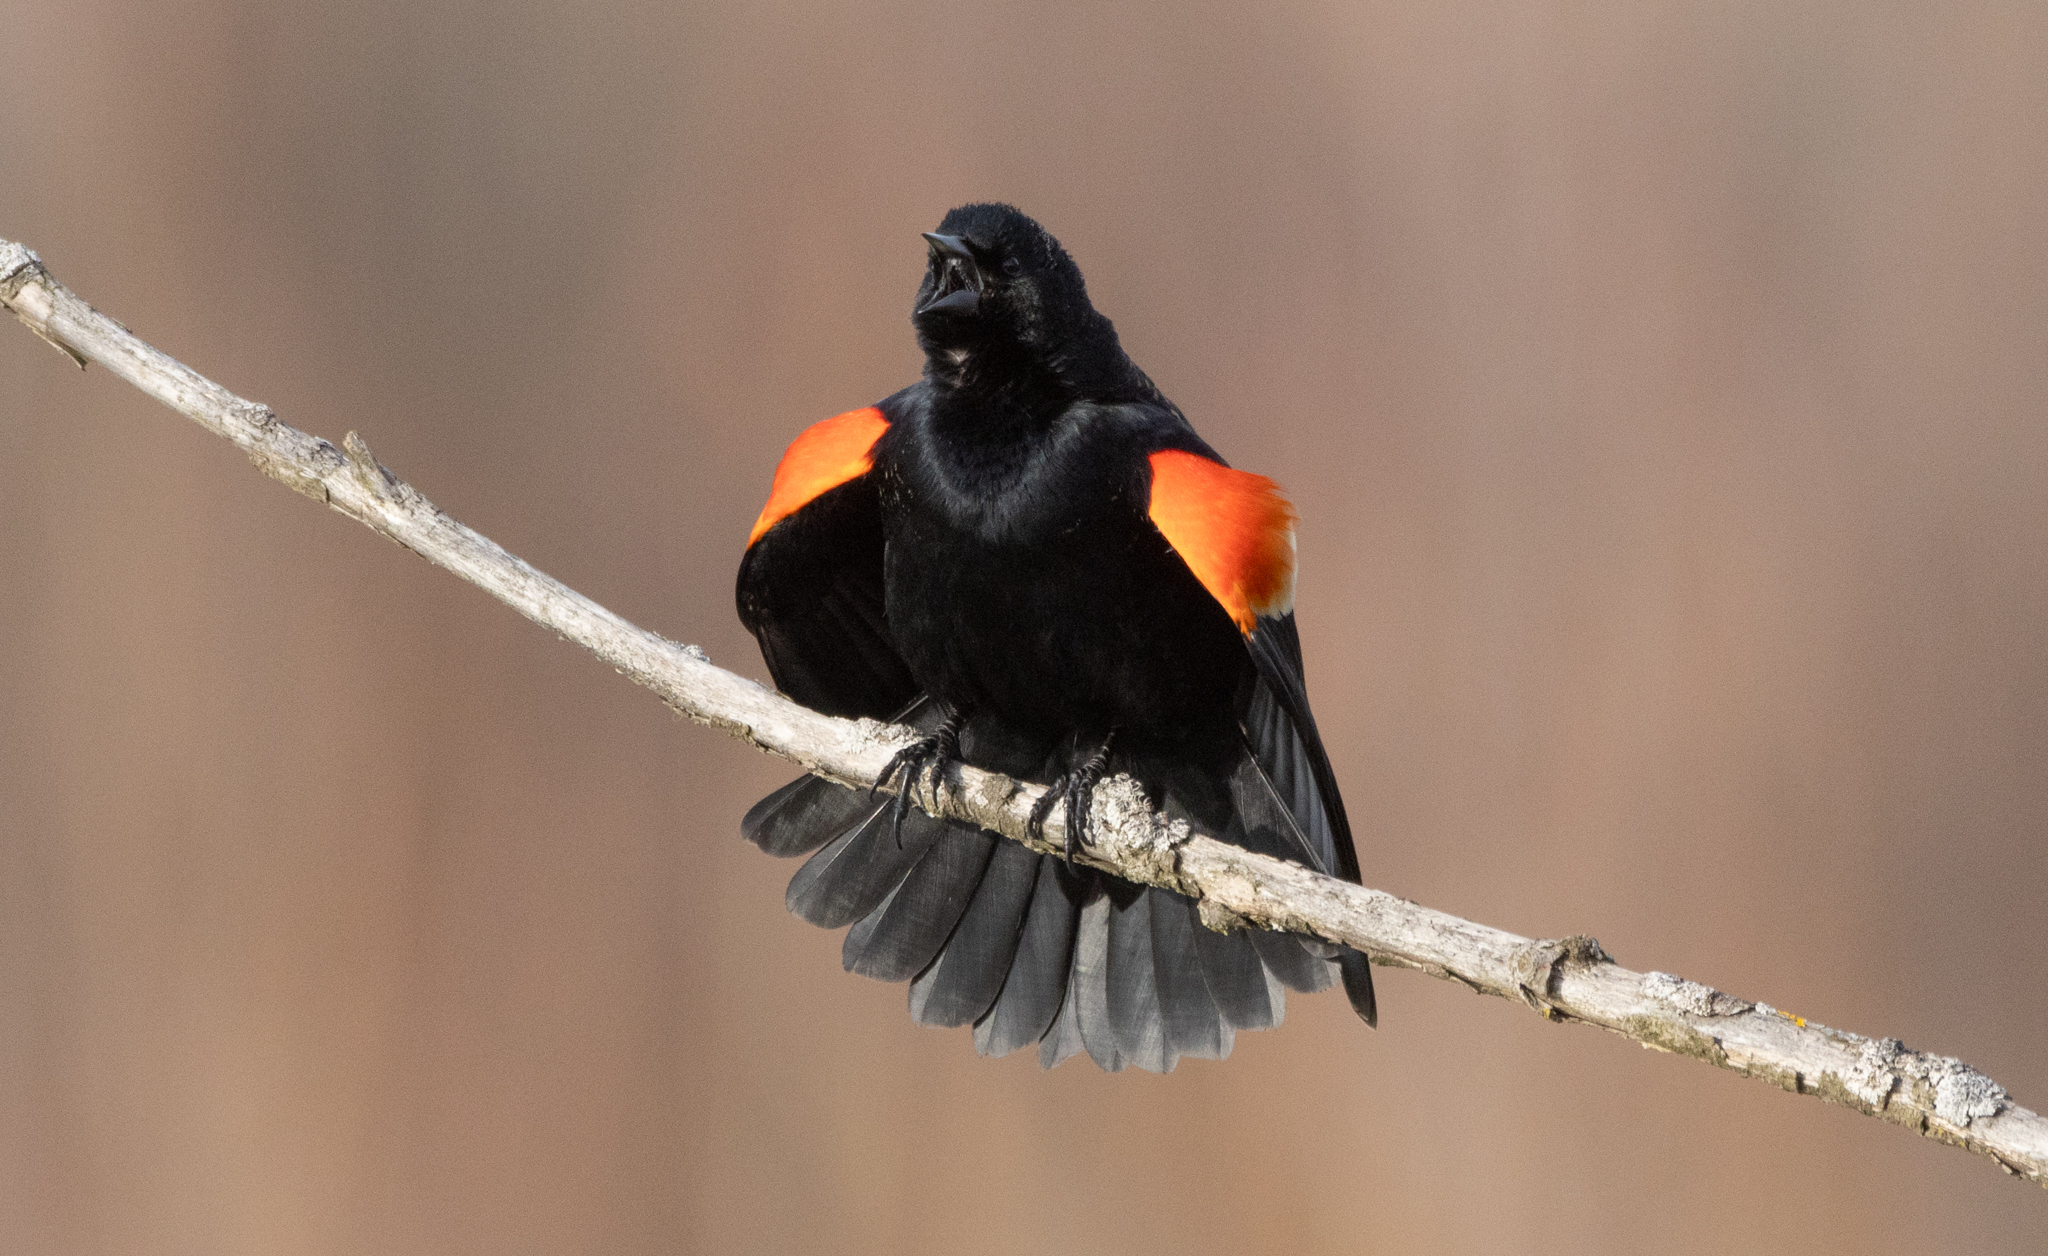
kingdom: Animalia
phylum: Chordata
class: Aves
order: Passeriformes
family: Icteridae
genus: Agelaius
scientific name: Agelaius phoeniceus
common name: Red-winged blackbird
